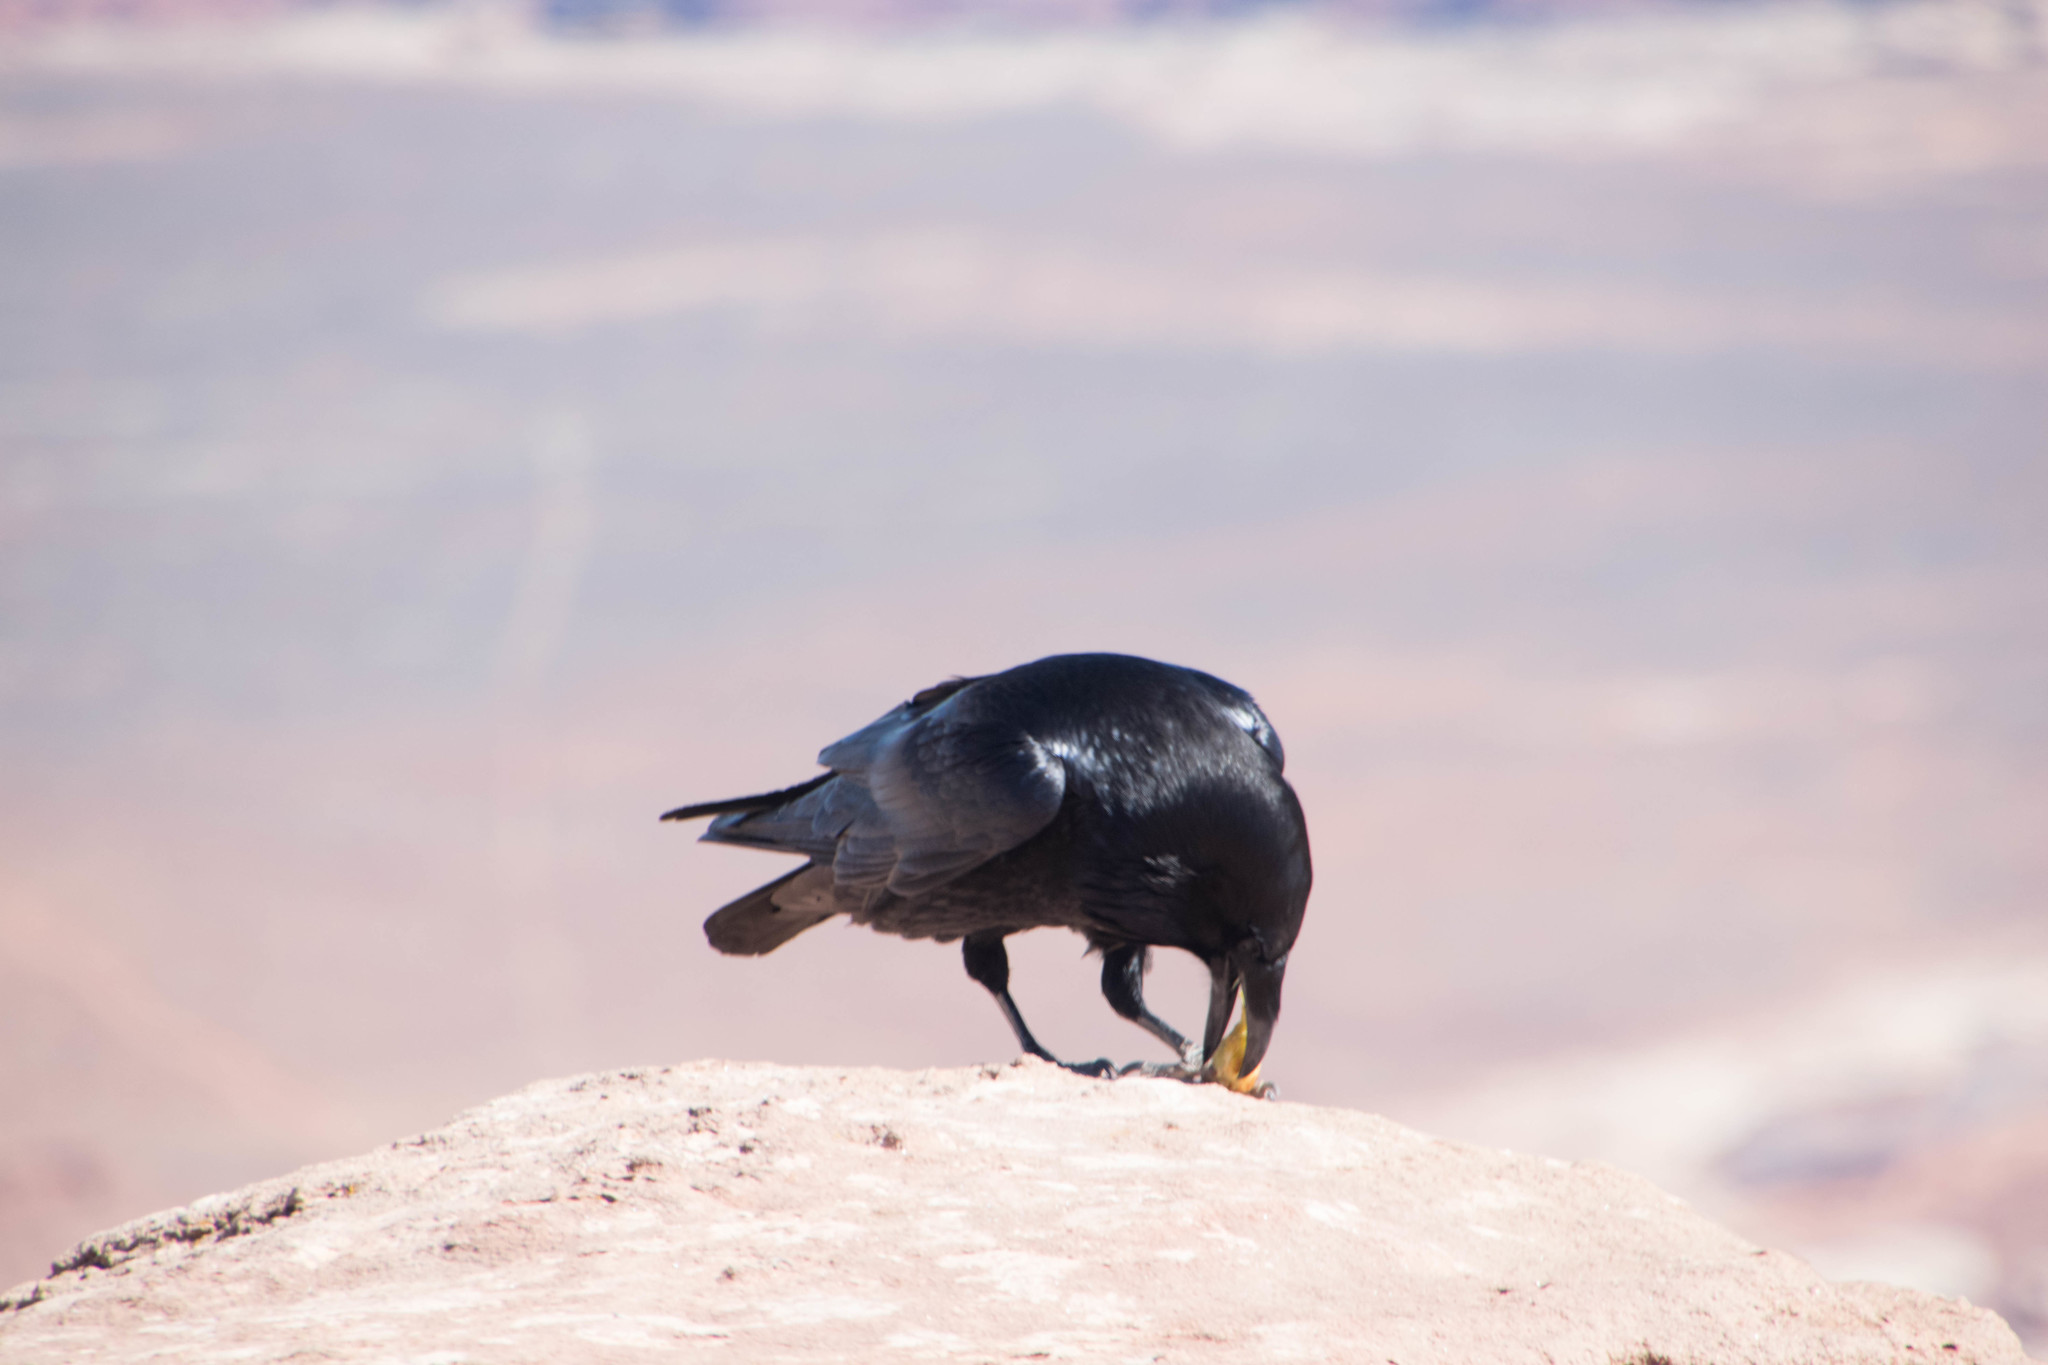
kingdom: Animalia
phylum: Chordata
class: Aves
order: Passeriformes
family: Corvidae
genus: Corvus
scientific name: Corvus corax
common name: Common raven
